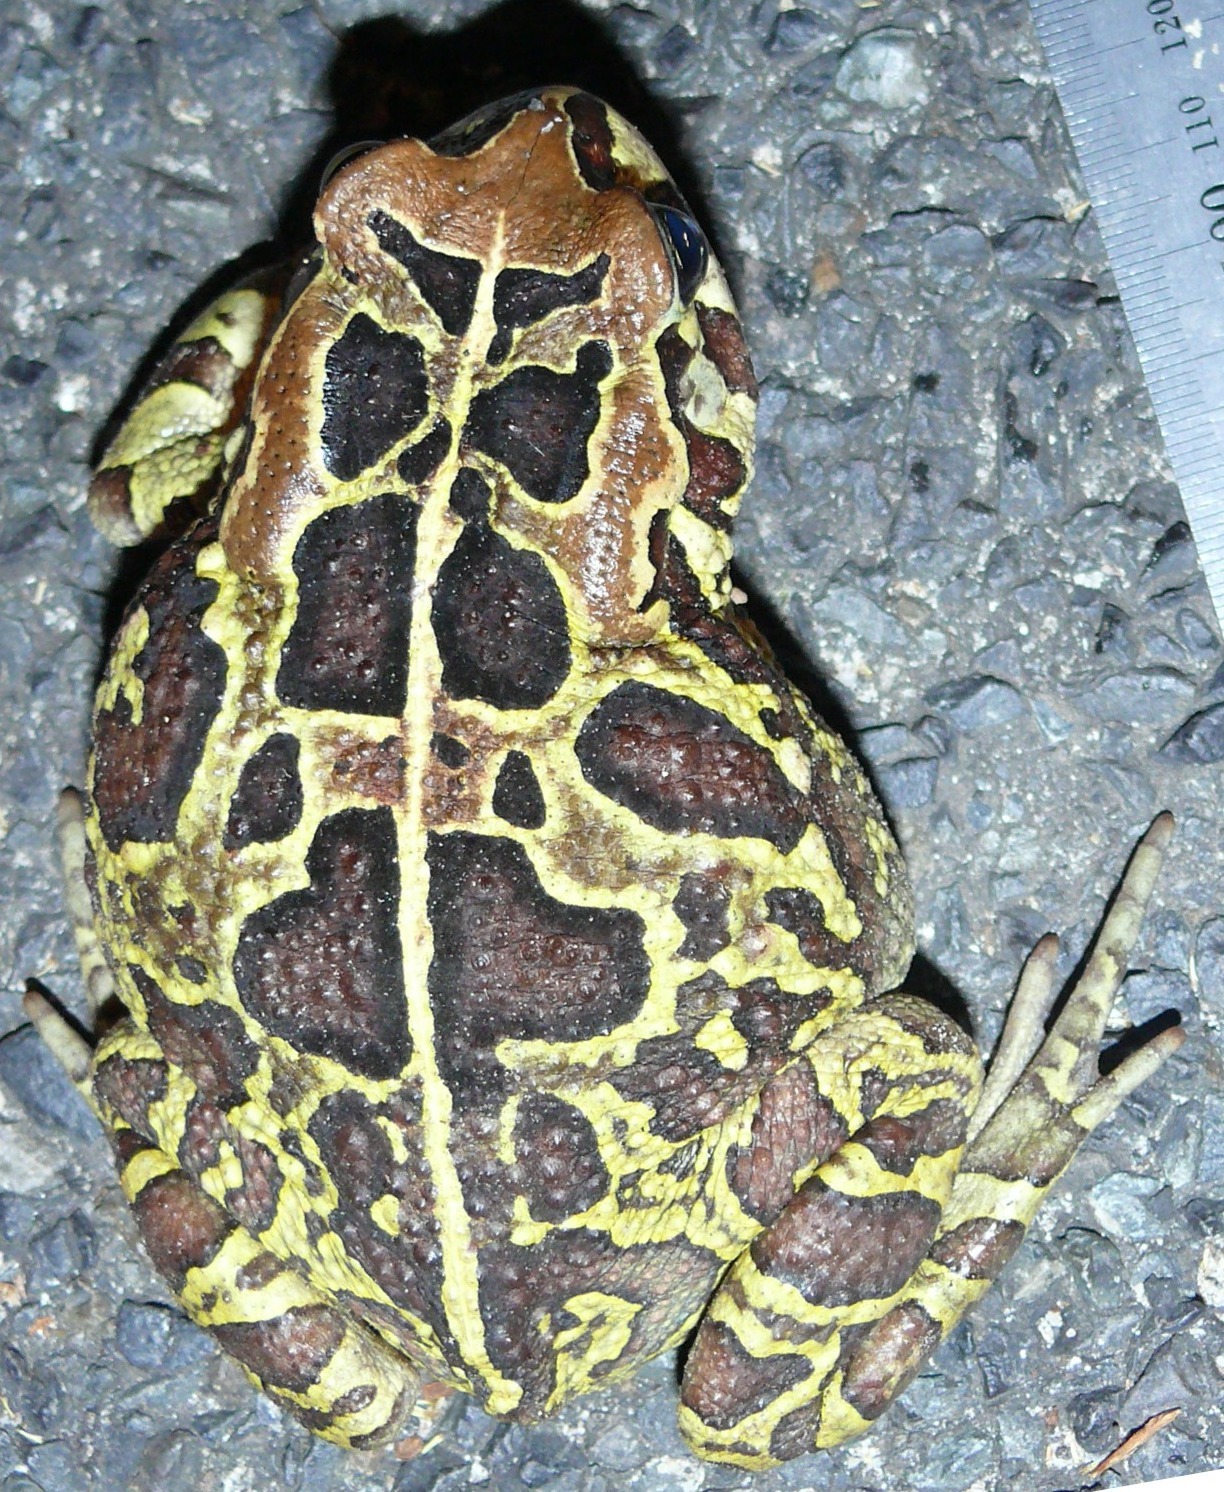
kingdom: Animalia
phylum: Chordata
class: Amphibia
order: Anura
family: Bufonidae
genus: Sclerophrys
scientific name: Sclerophrys pantherina
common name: Panther toad
